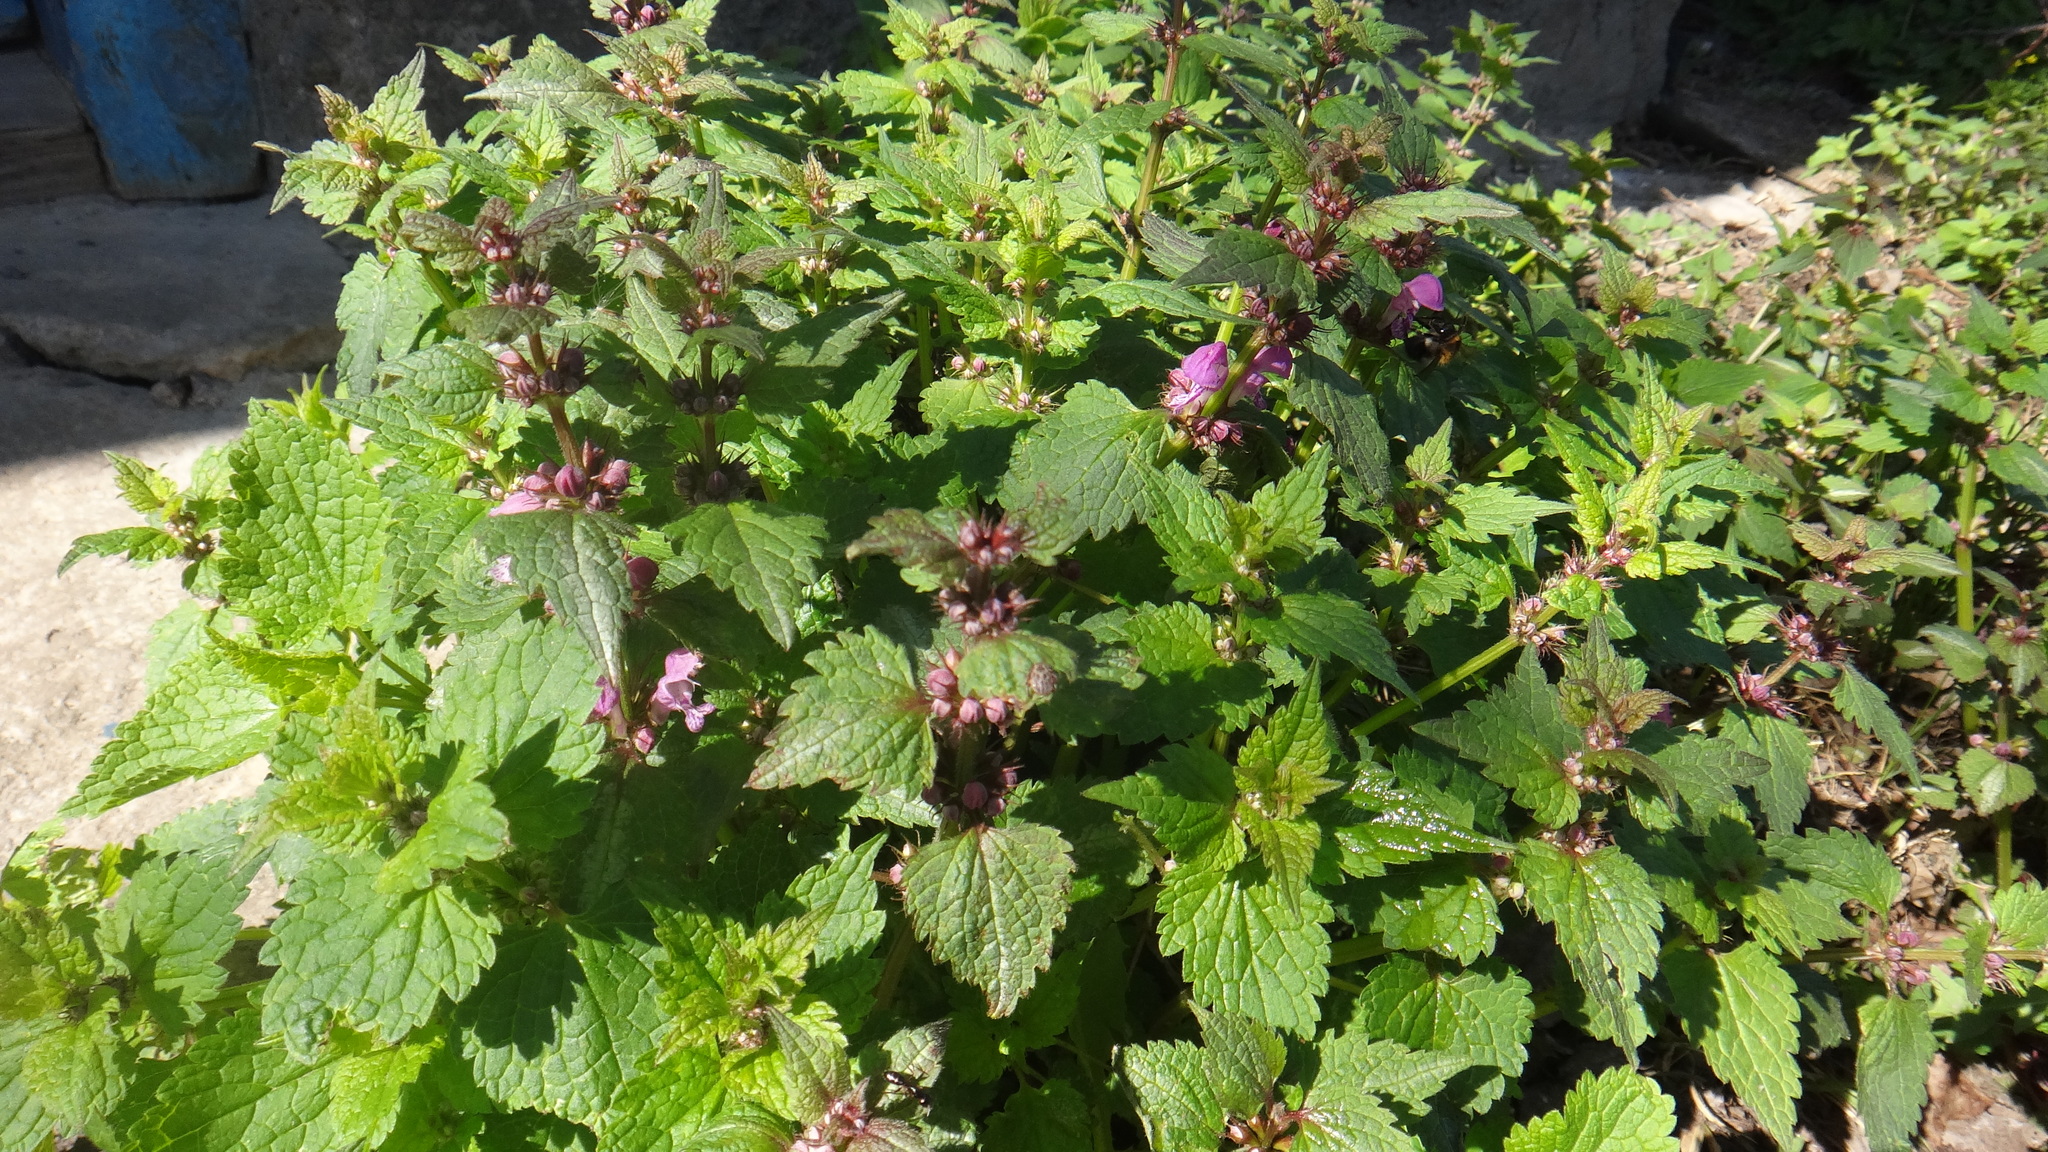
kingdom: Plantae
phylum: Tracheophyta
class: Magnoliopsida
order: Lamiales
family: Lamiaceae
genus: Lamium
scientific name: Lamium maculatum
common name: Spotted dead-nettle
